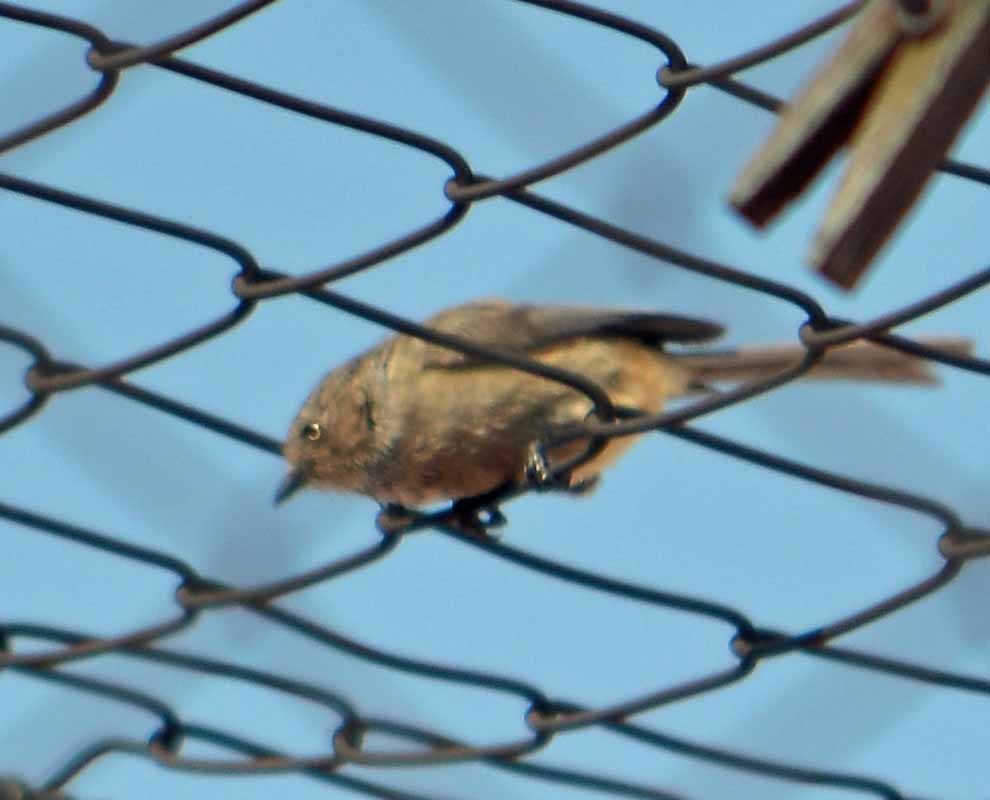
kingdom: Animalia
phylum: Chordata
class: Aves
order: Passeriformes
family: Aegithalidae
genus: Psaltriparus
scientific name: Psaltriparus minimus
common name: American bushtit
